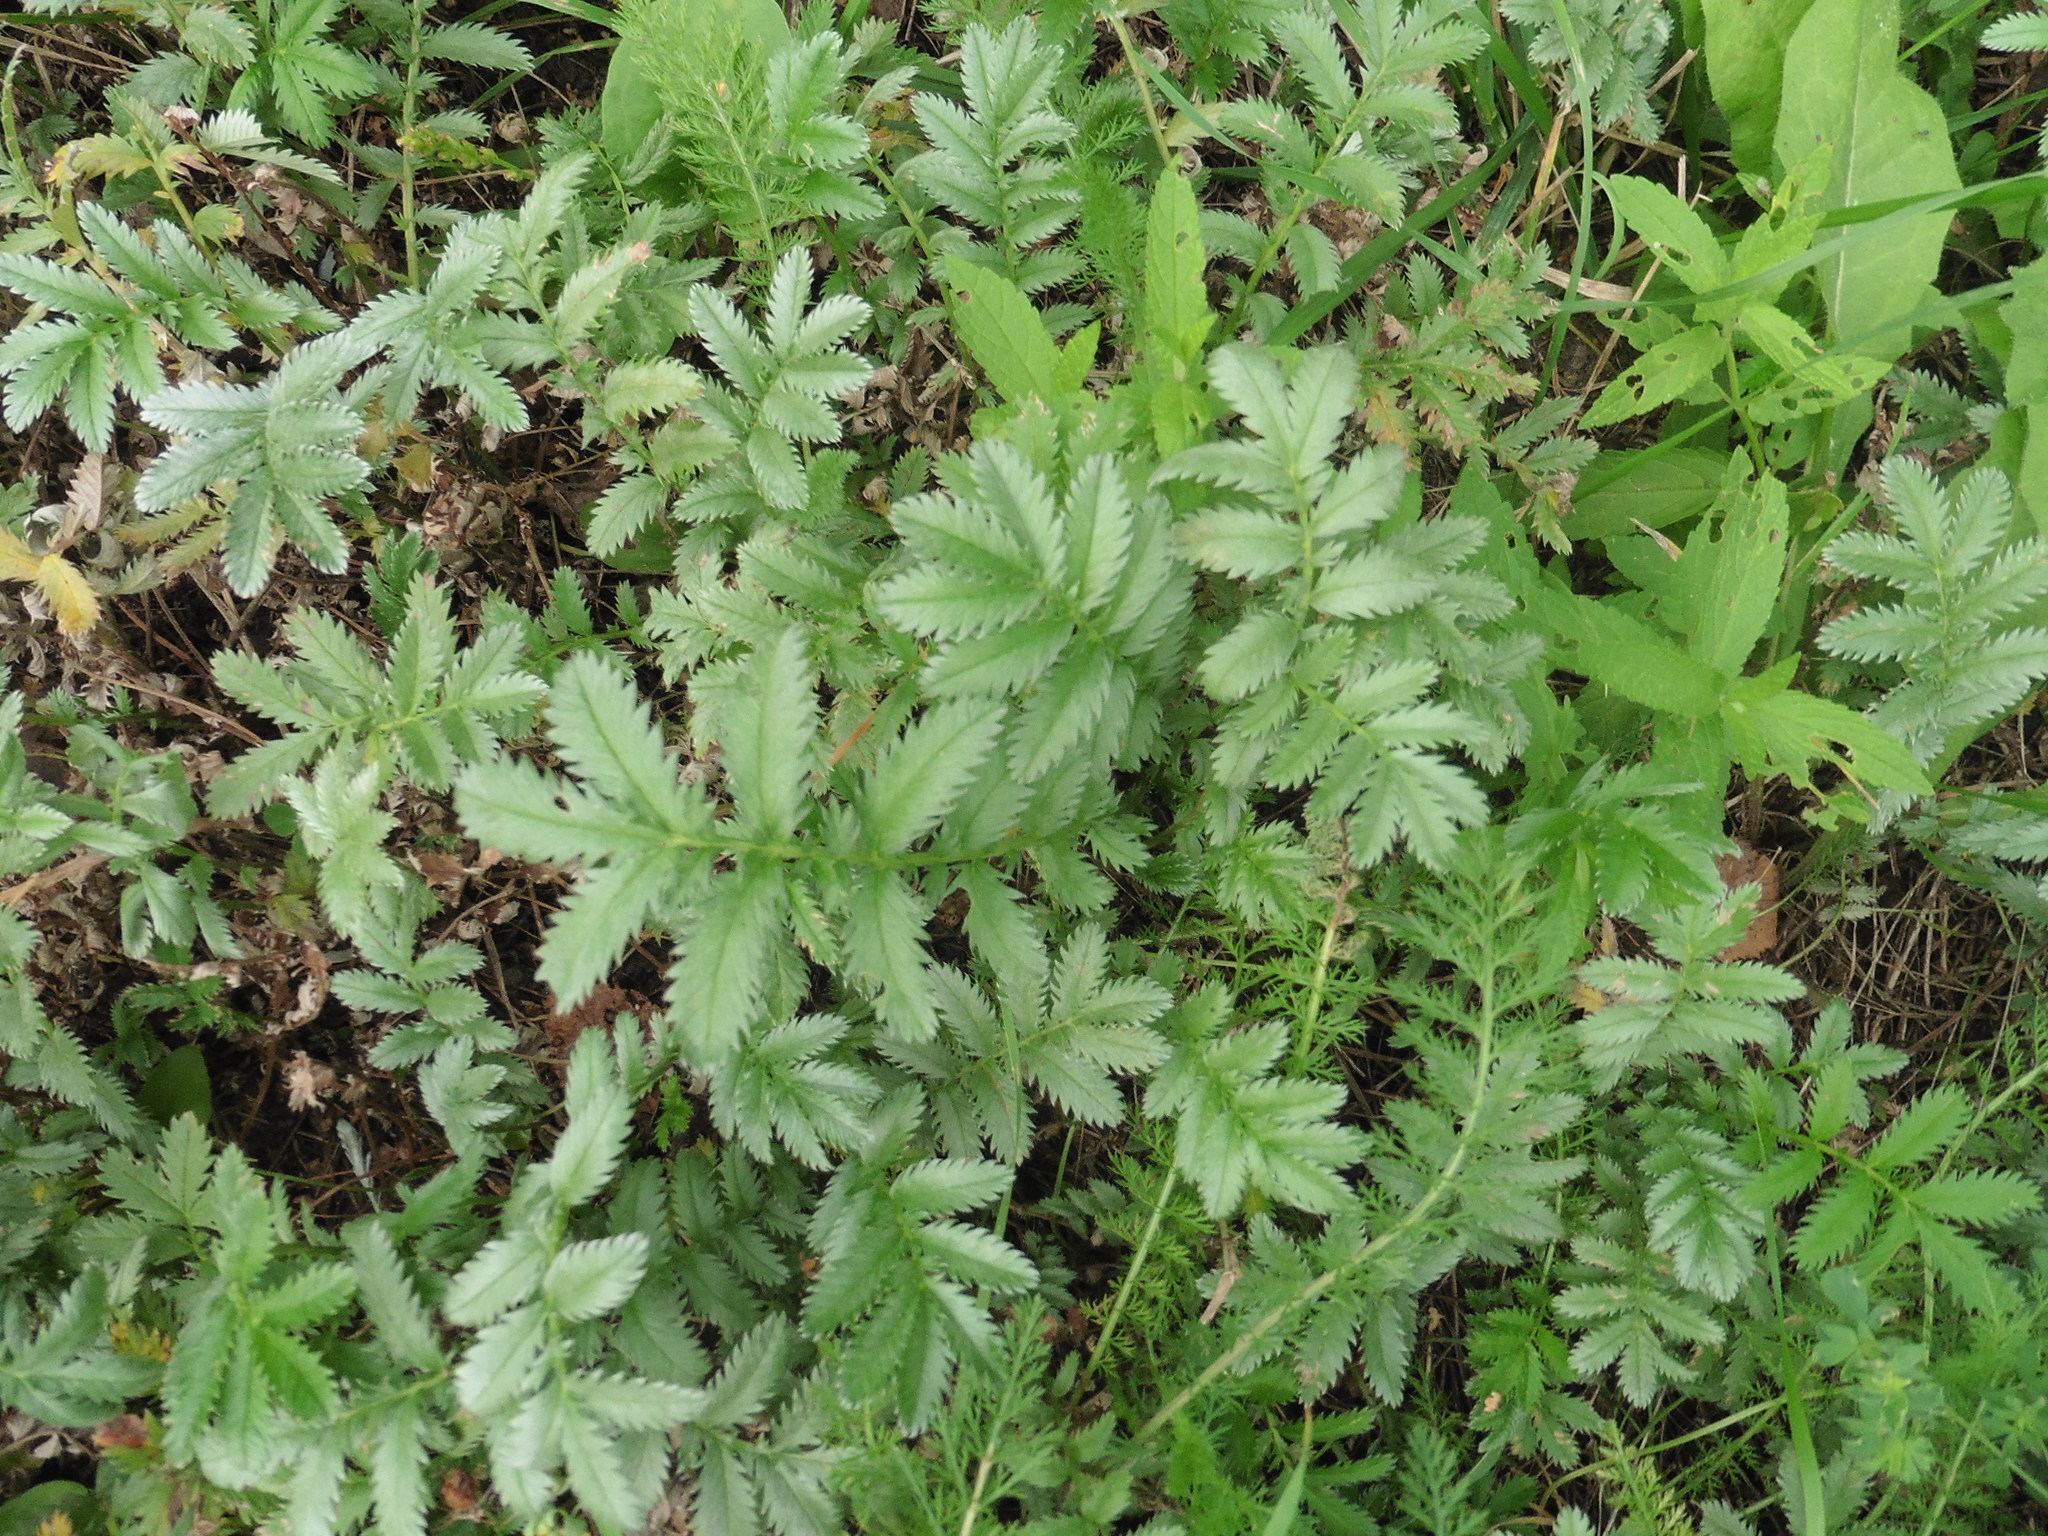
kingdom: Plantae
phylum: Tracheophyta
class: Magnoliopsida
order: Rosales
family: Rosaceae
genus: Argentina
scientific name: Argentina anserina
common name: Common silverweed
